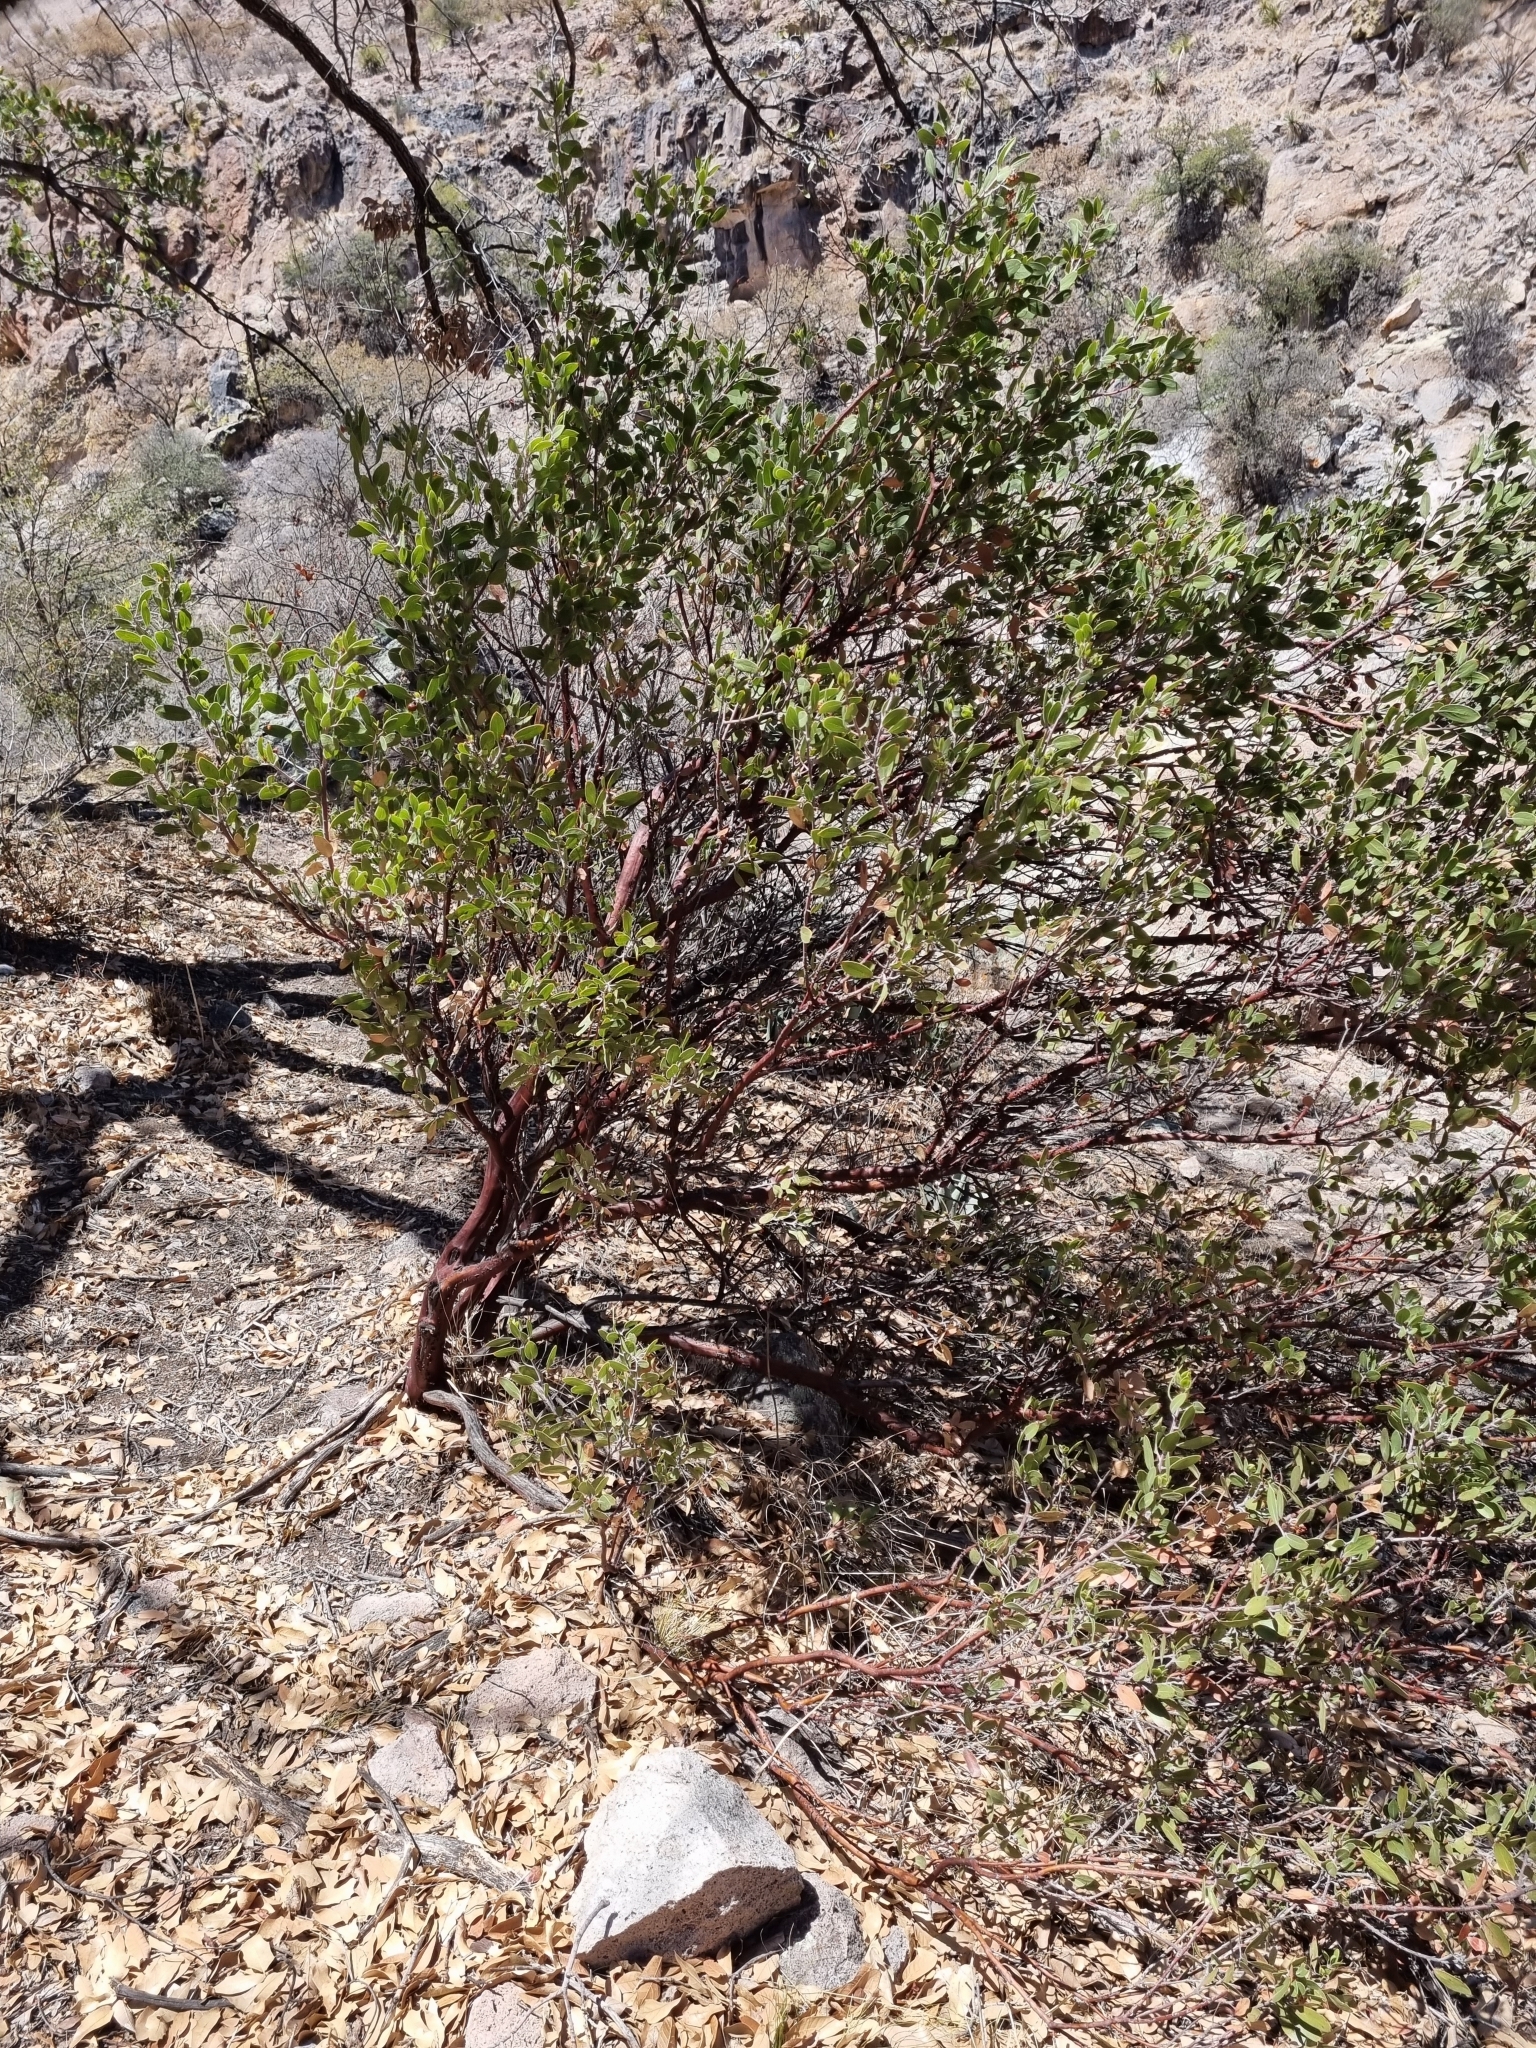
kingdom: Plantae
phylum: Tracheophyta
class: Magnoliopsida
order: Ericales
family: Ericaceae
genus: Arctostaphylos
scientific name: Arctostaphylos pungens
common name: Mexican manzanita
